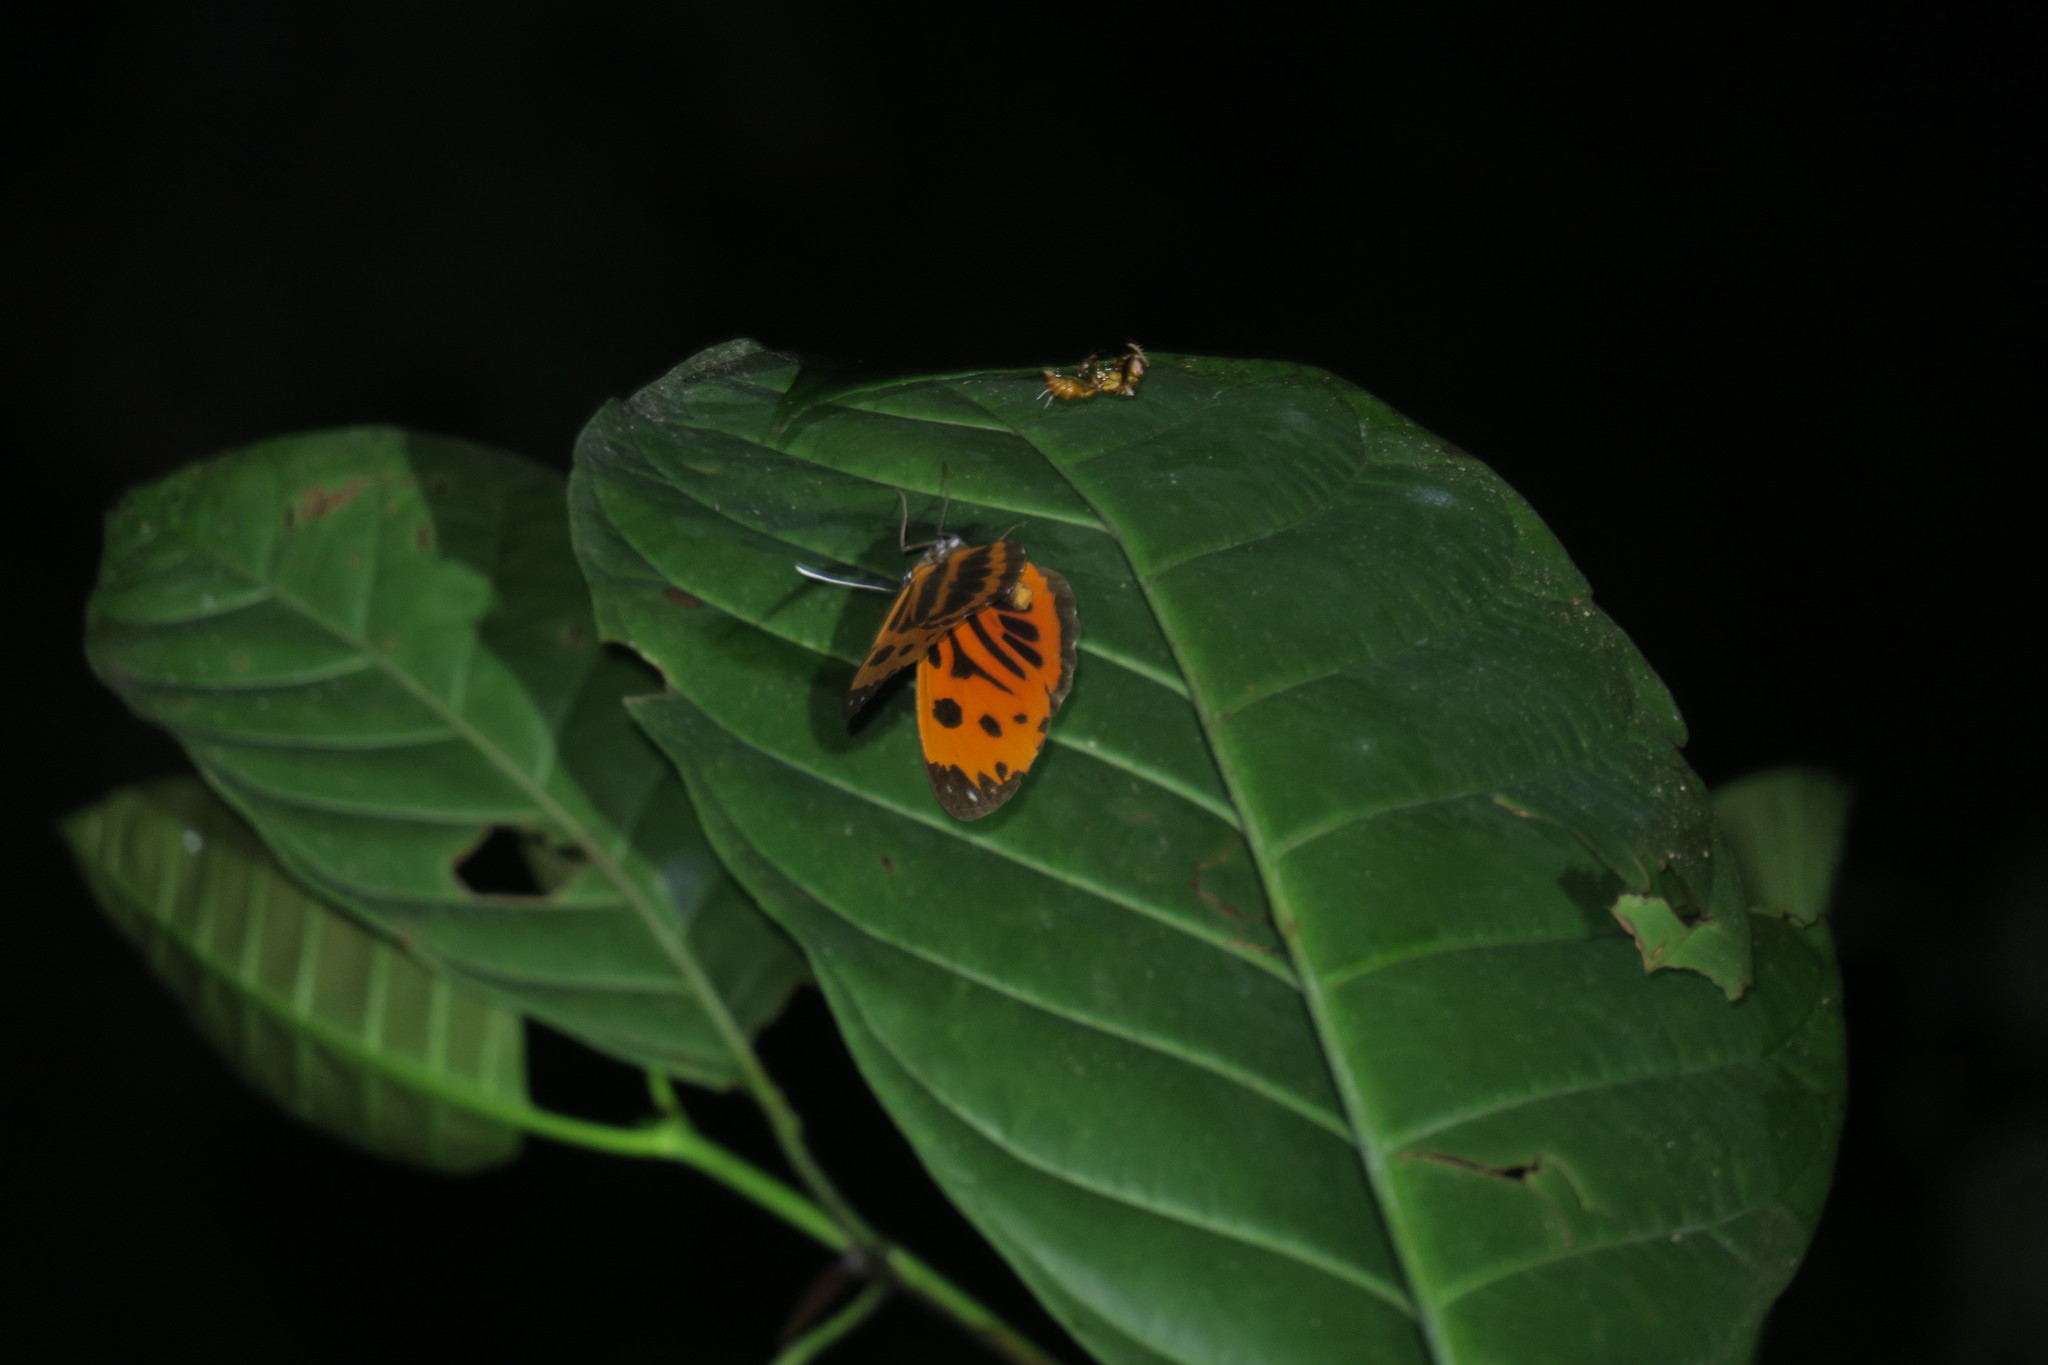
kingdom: Animalia
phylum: Arthropoda
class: Insecta
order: Lepidoptera
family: Riodinidae
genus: Stalachtis
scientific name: Stalachtis calliope
